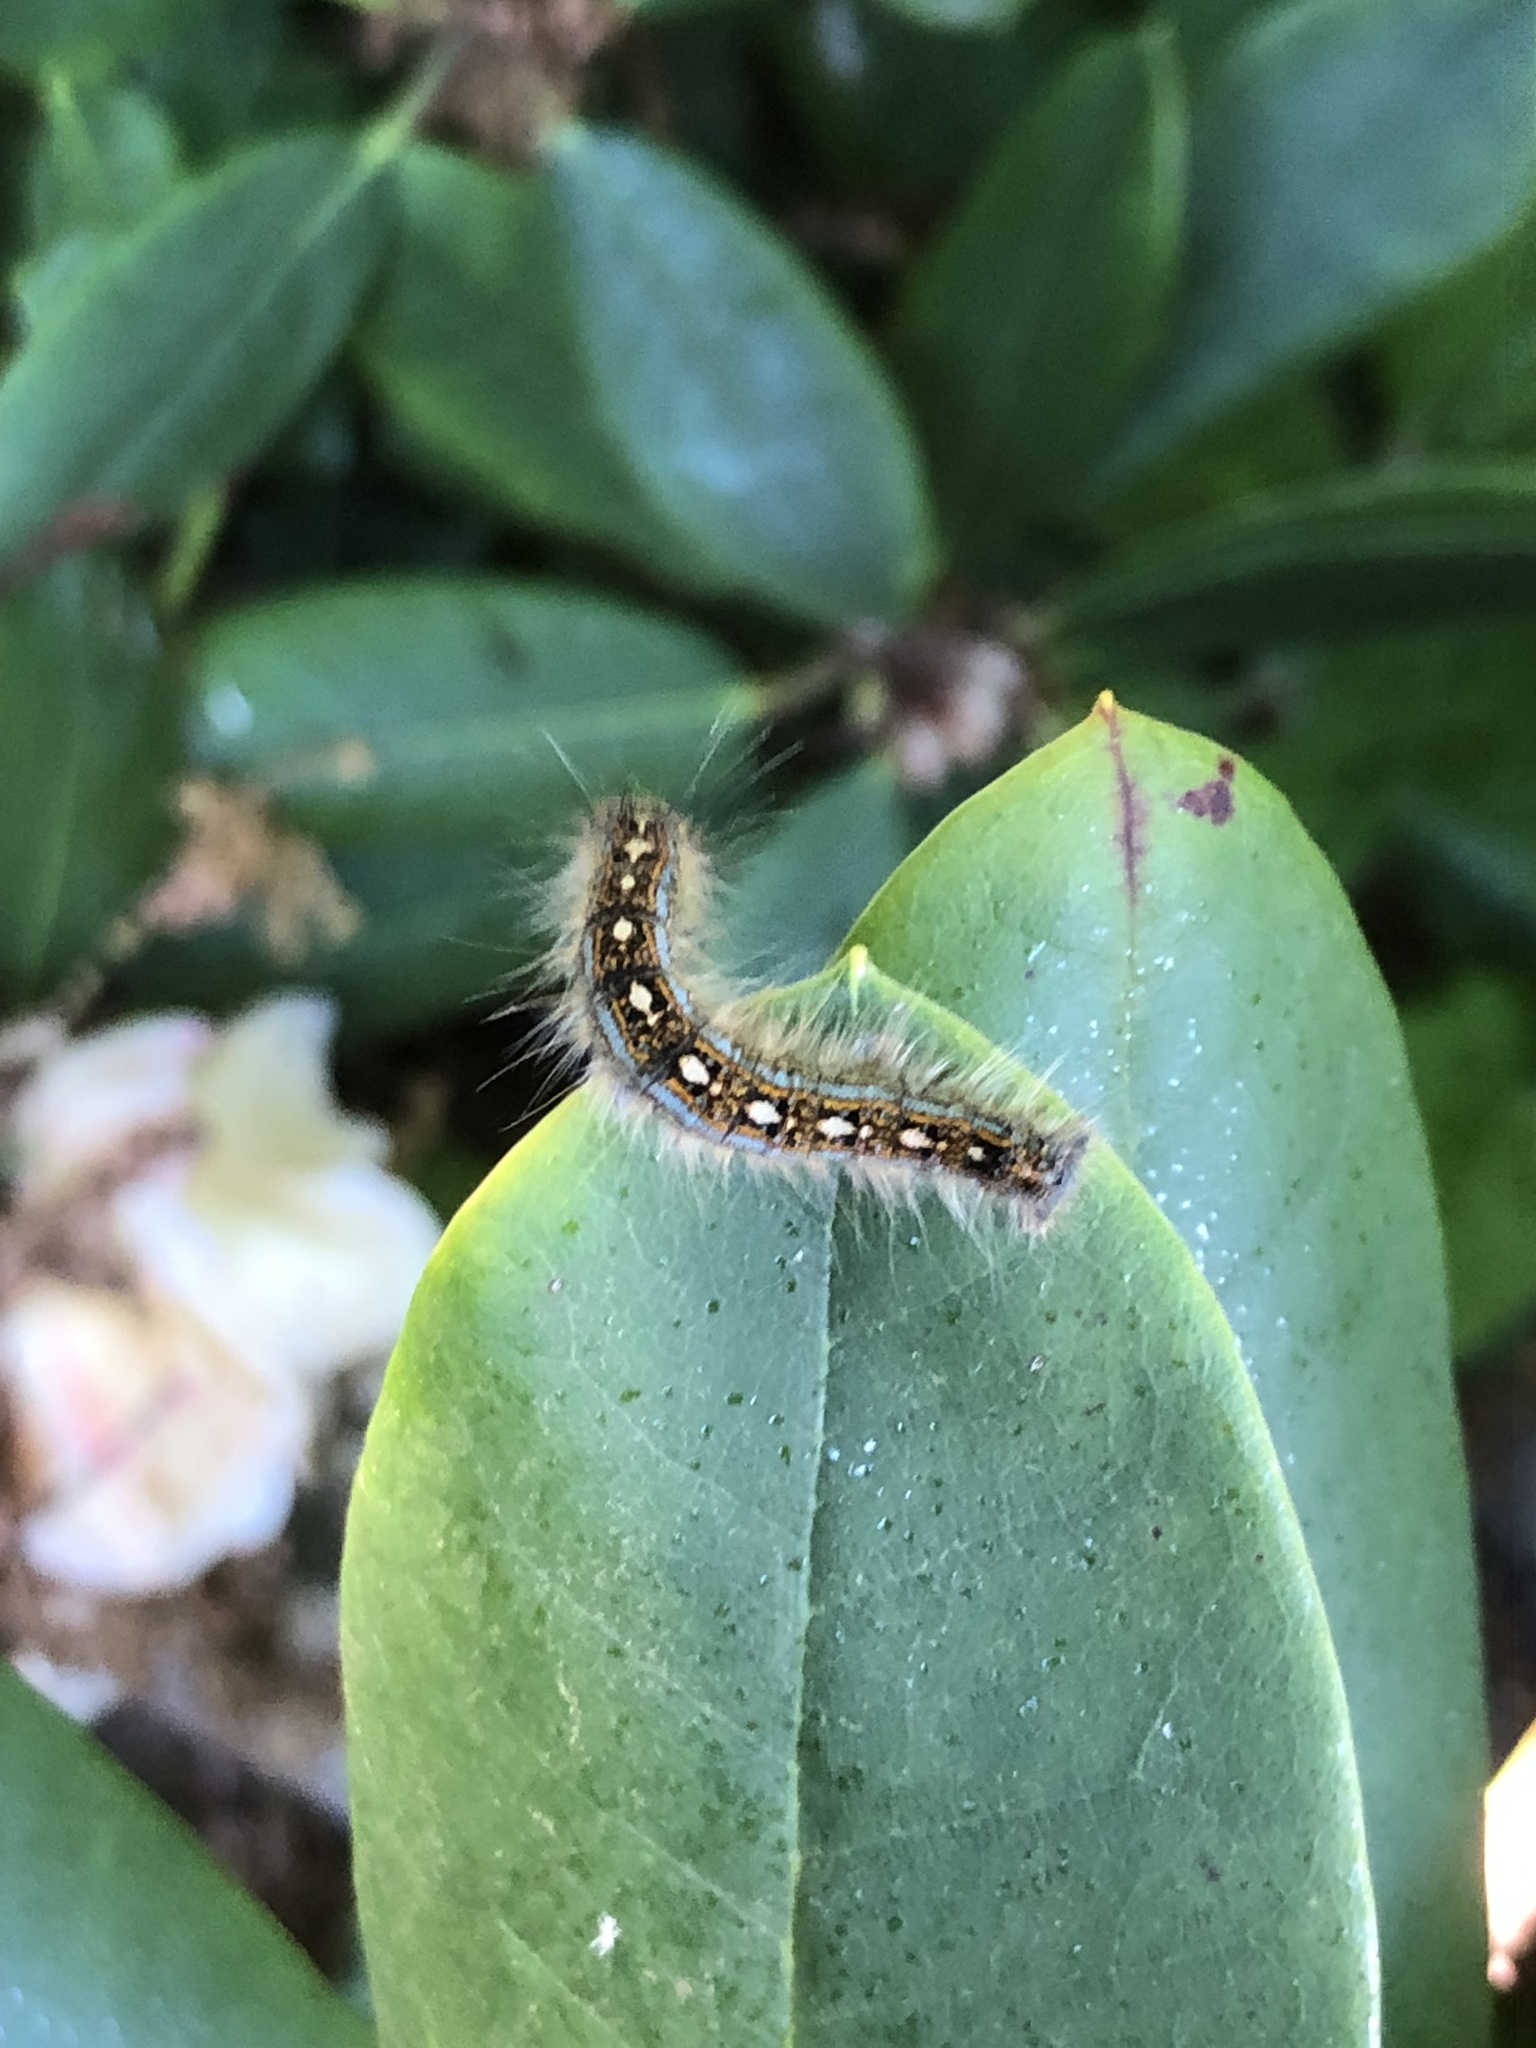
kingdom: Animalia
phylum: Arthropoda
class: Insecta
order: Lepidoptera
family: Lasiocampidae
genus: Malacosoma
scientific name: Malacosoma disstria
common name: Forest tent caterpillar
